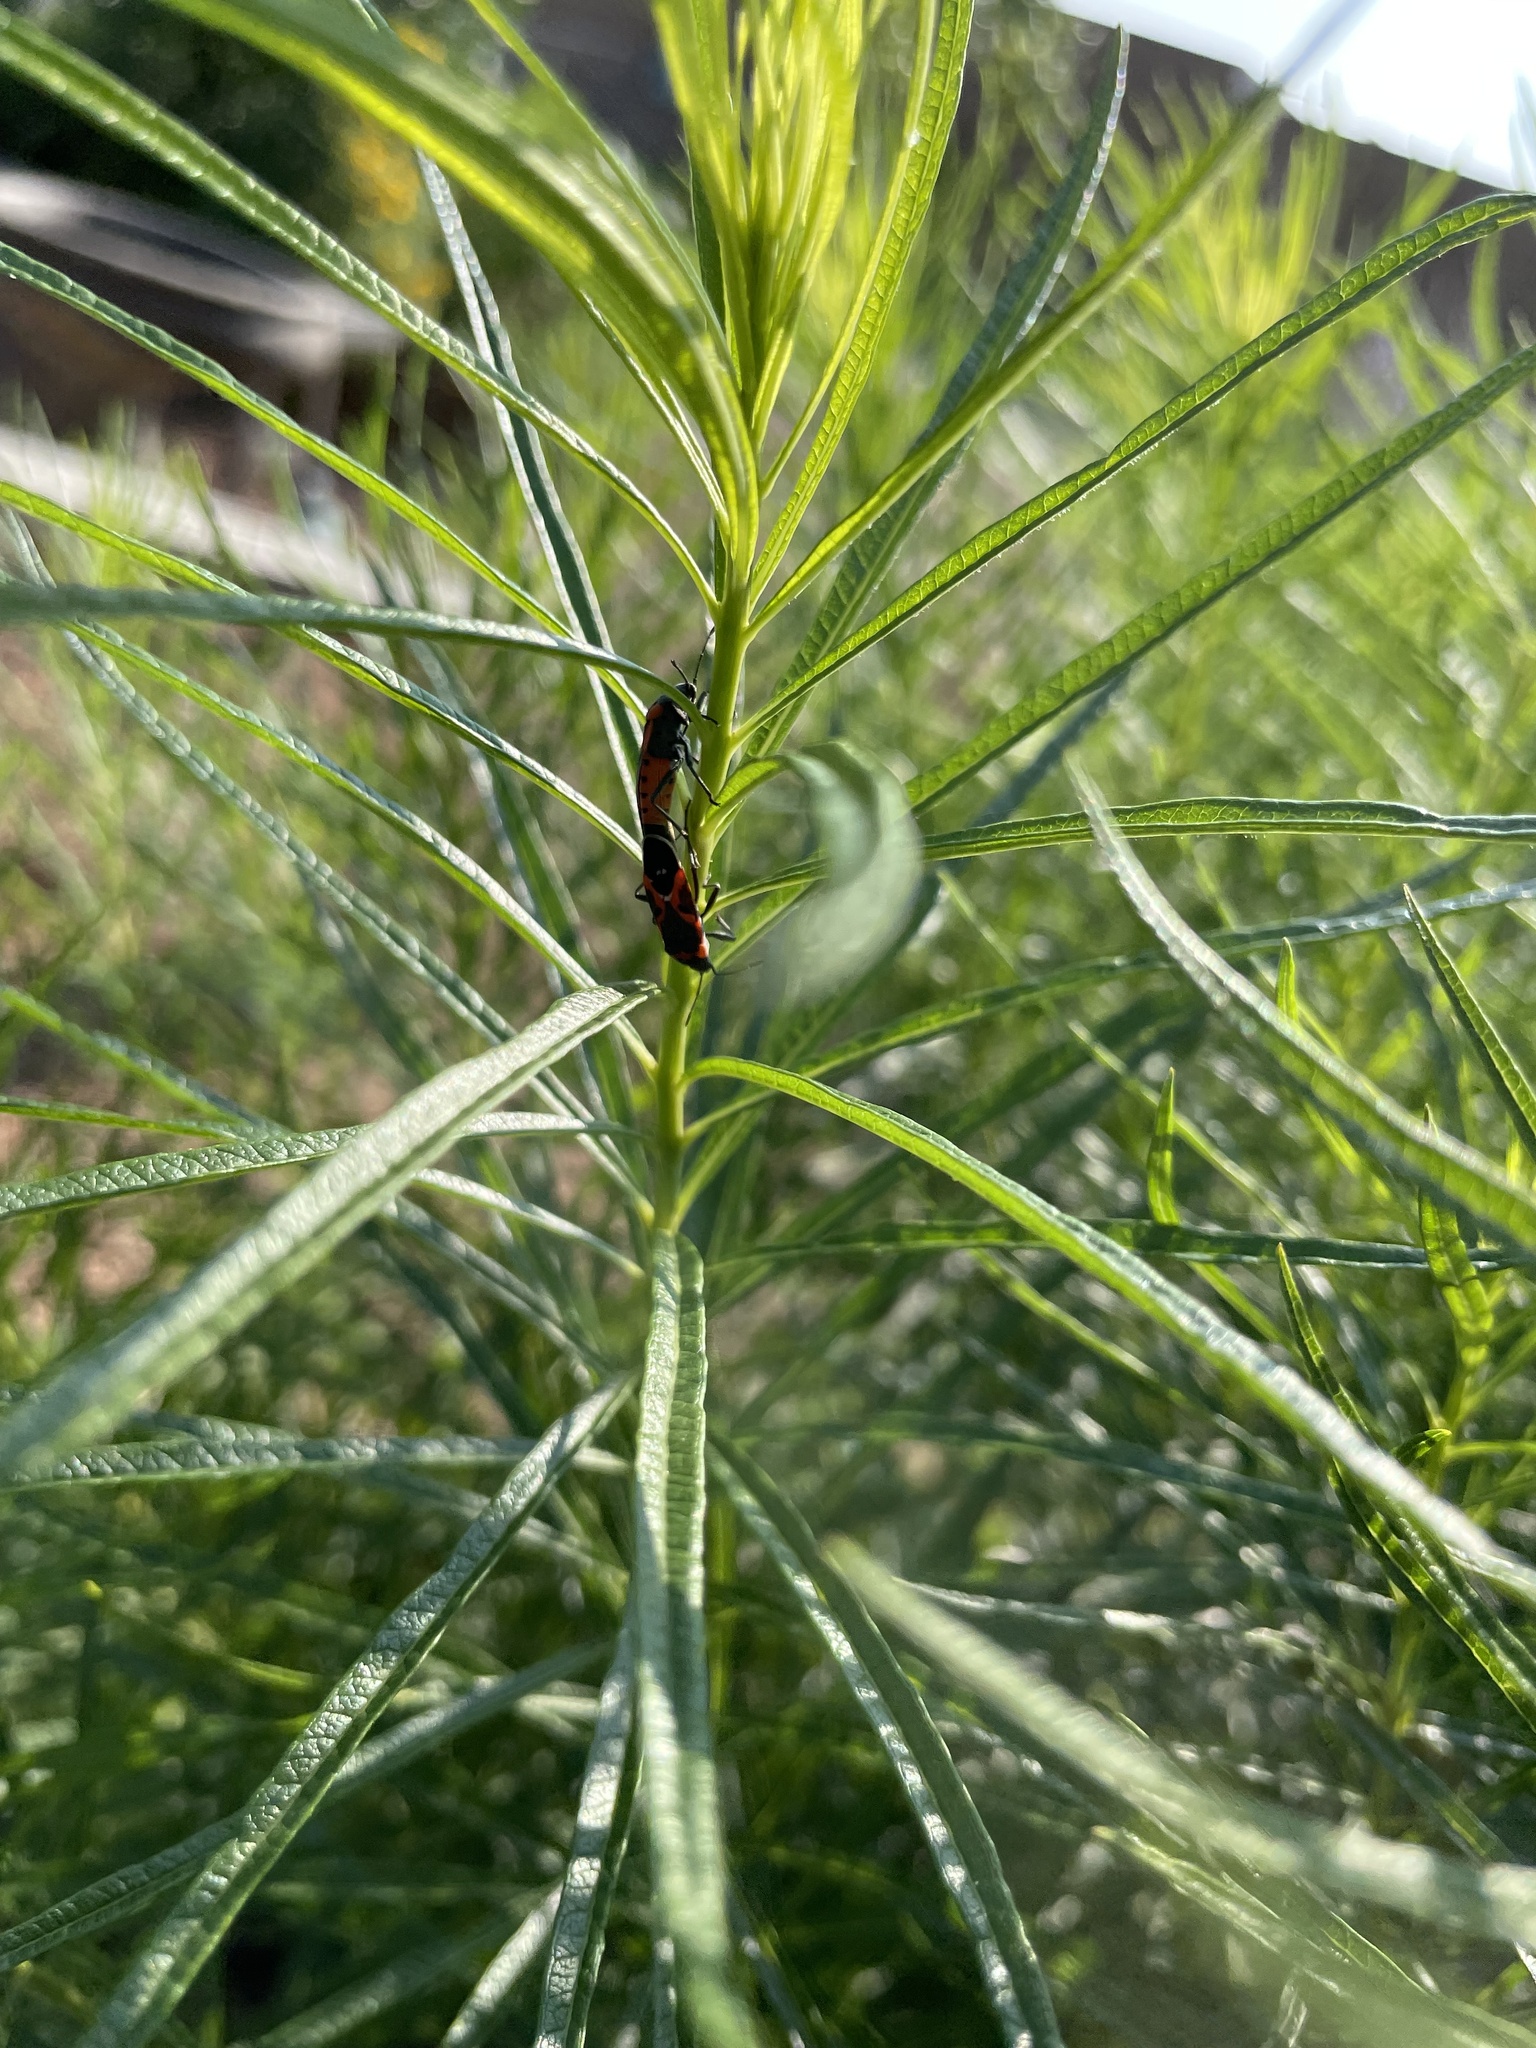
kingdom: Animalia
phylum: Arthropoda
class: Insecta
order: Hemiptera
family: Lygaeidae
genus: Lygaeus
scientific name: Lygaeus kalmii
